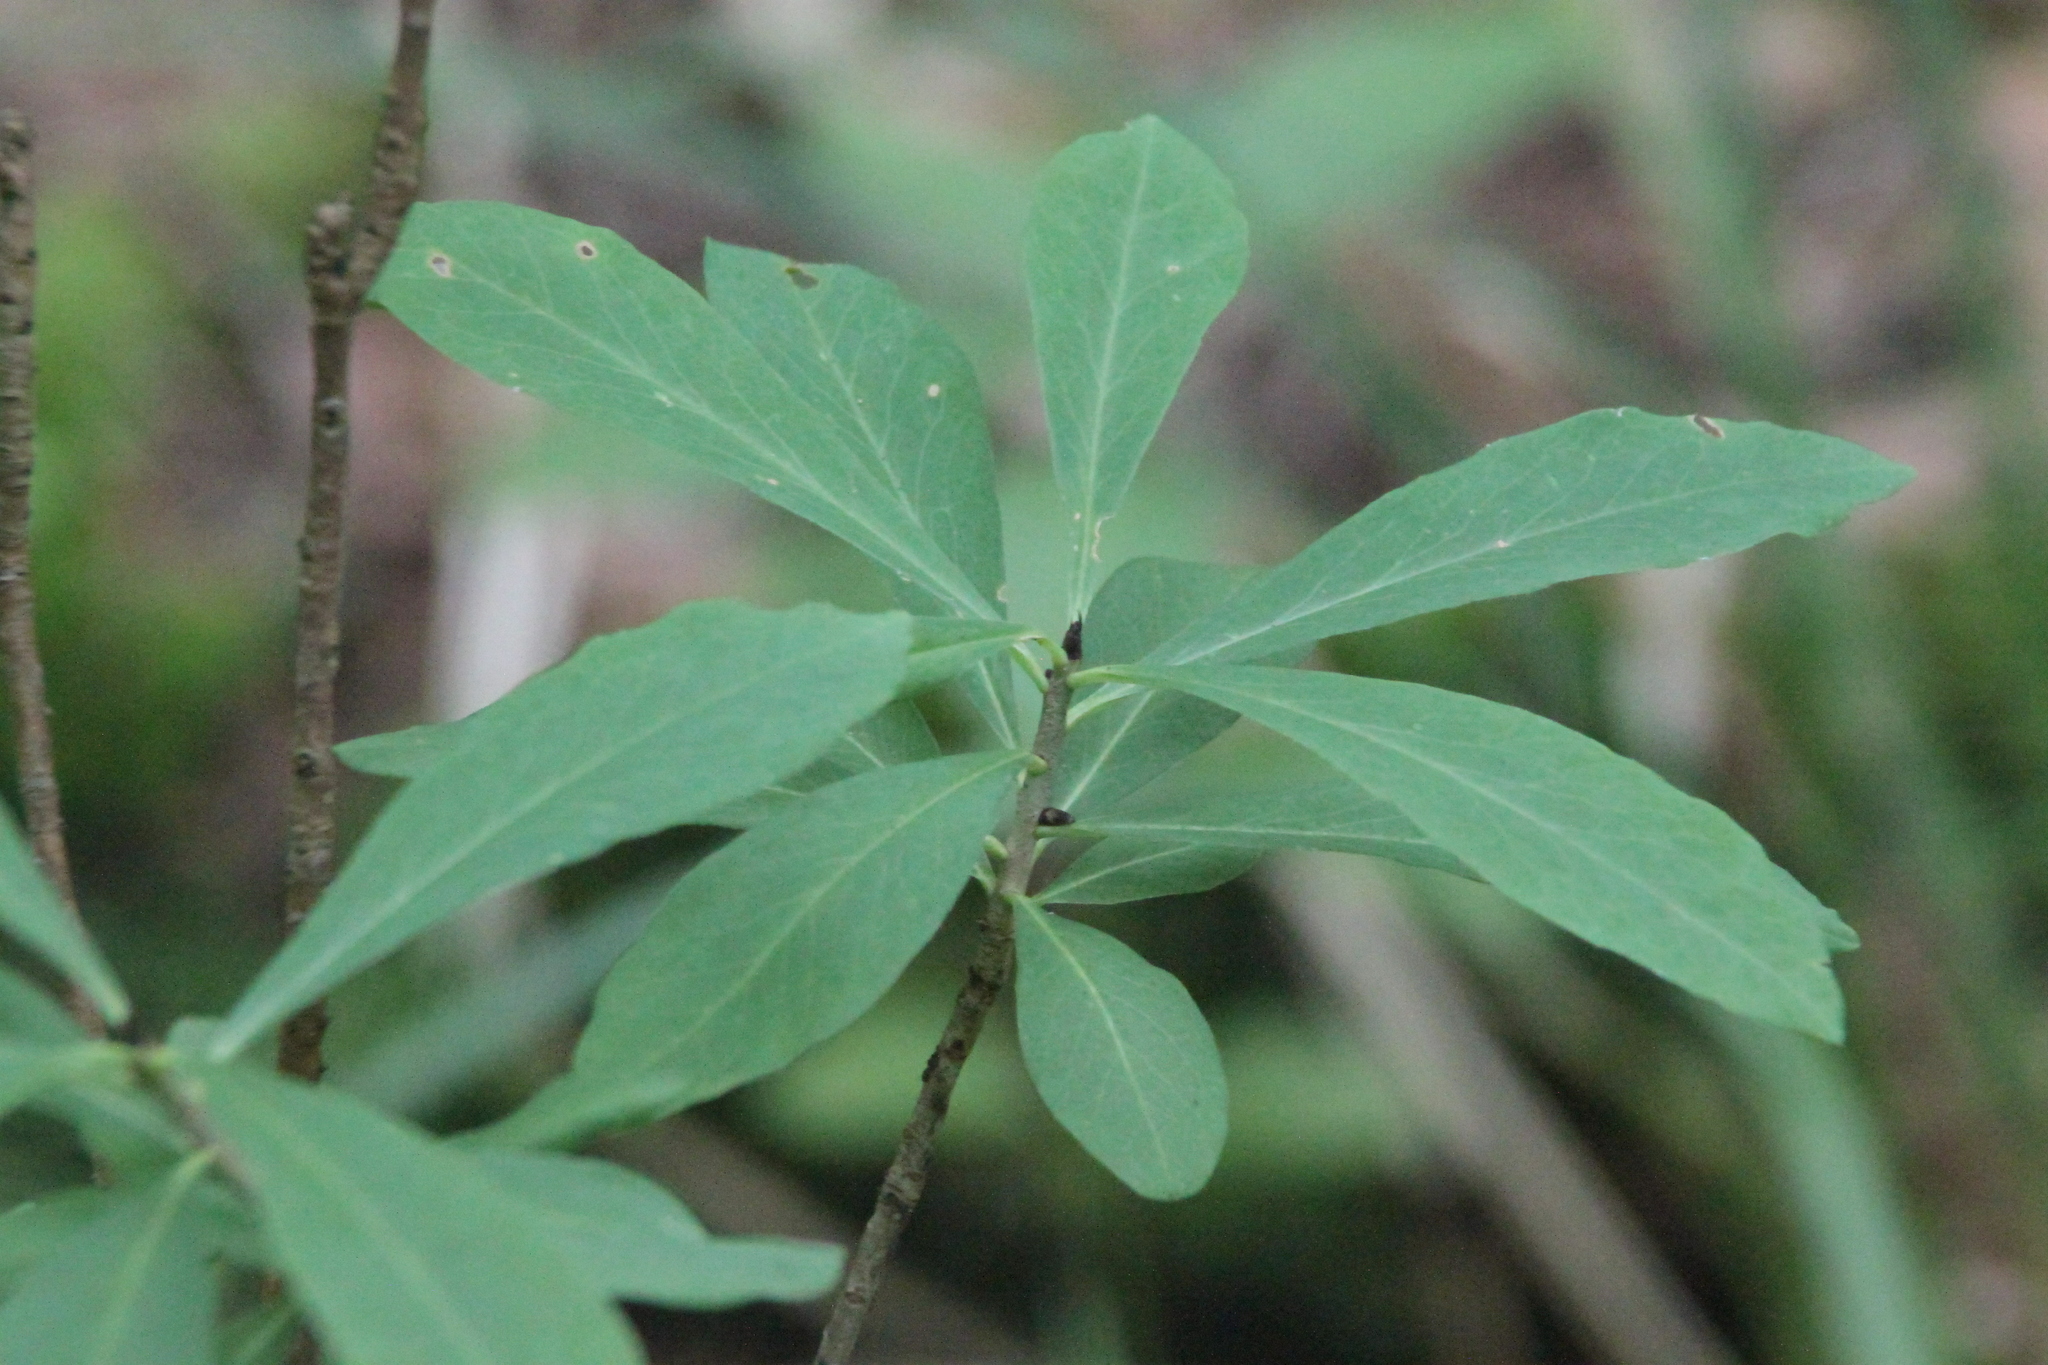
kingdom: Plantae
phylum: Tracheophyta
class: Magnoliopsida
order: Malvales
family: Thymelaeaceae
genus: Daphne
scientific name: Daphne mezereum
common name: Mezereon
